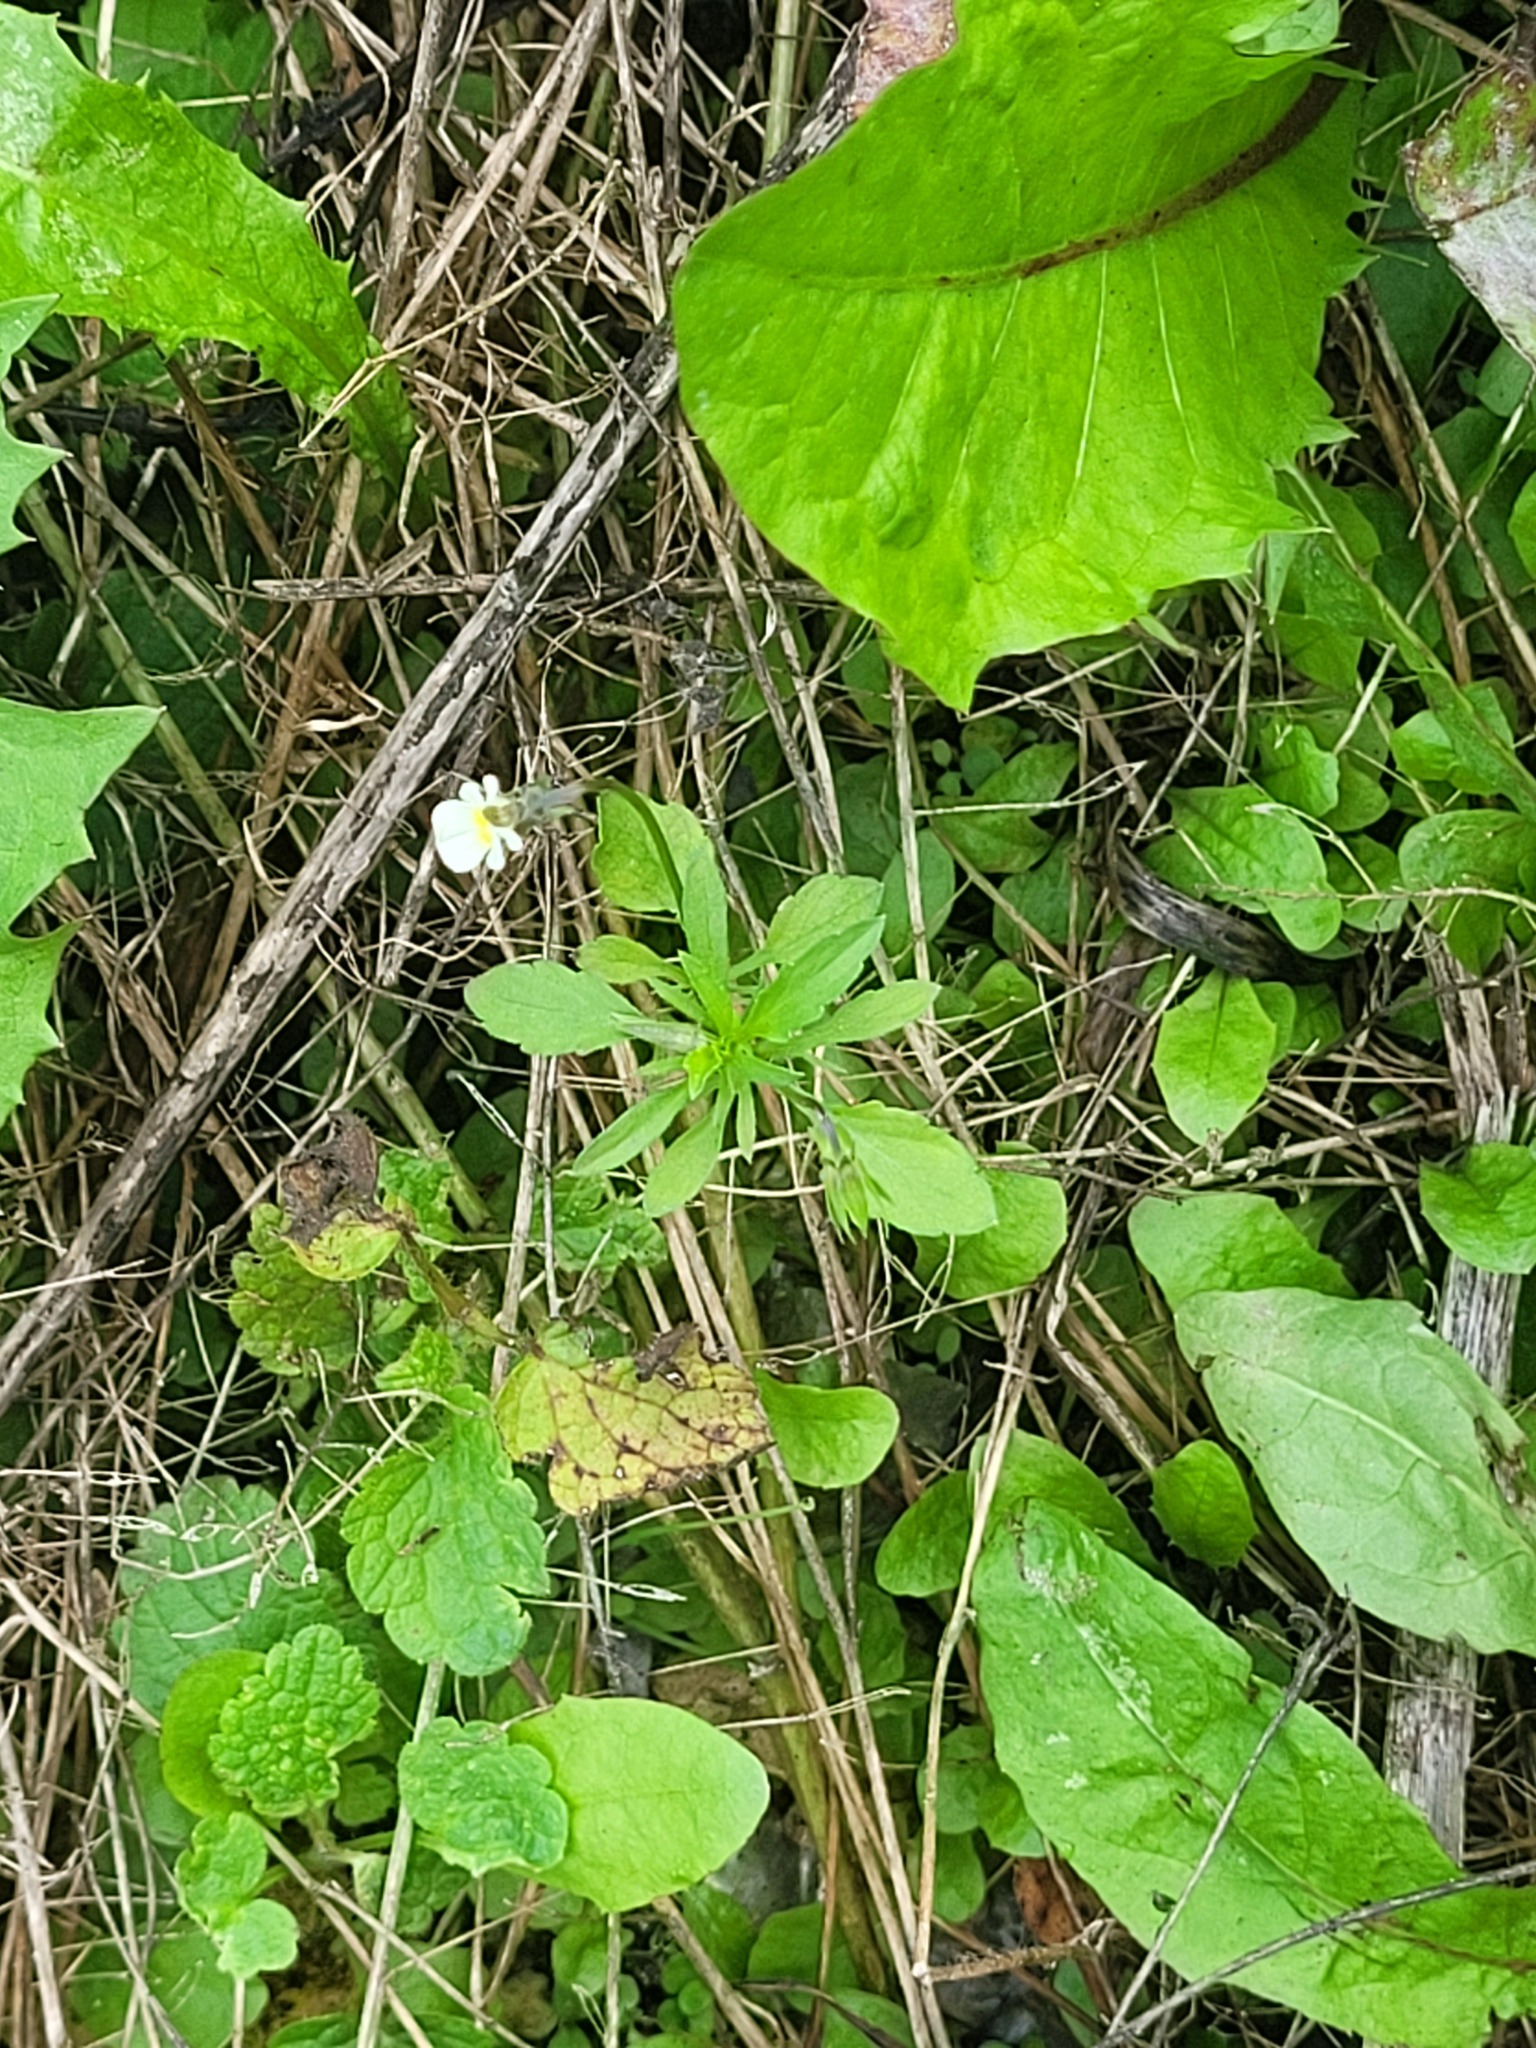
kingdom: Plantae
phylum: Tracheophyta
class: Magnoliopsida
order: Malpighiales
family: Violaceae
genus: Viola
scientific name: Viola arvensis
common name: Field pansy
